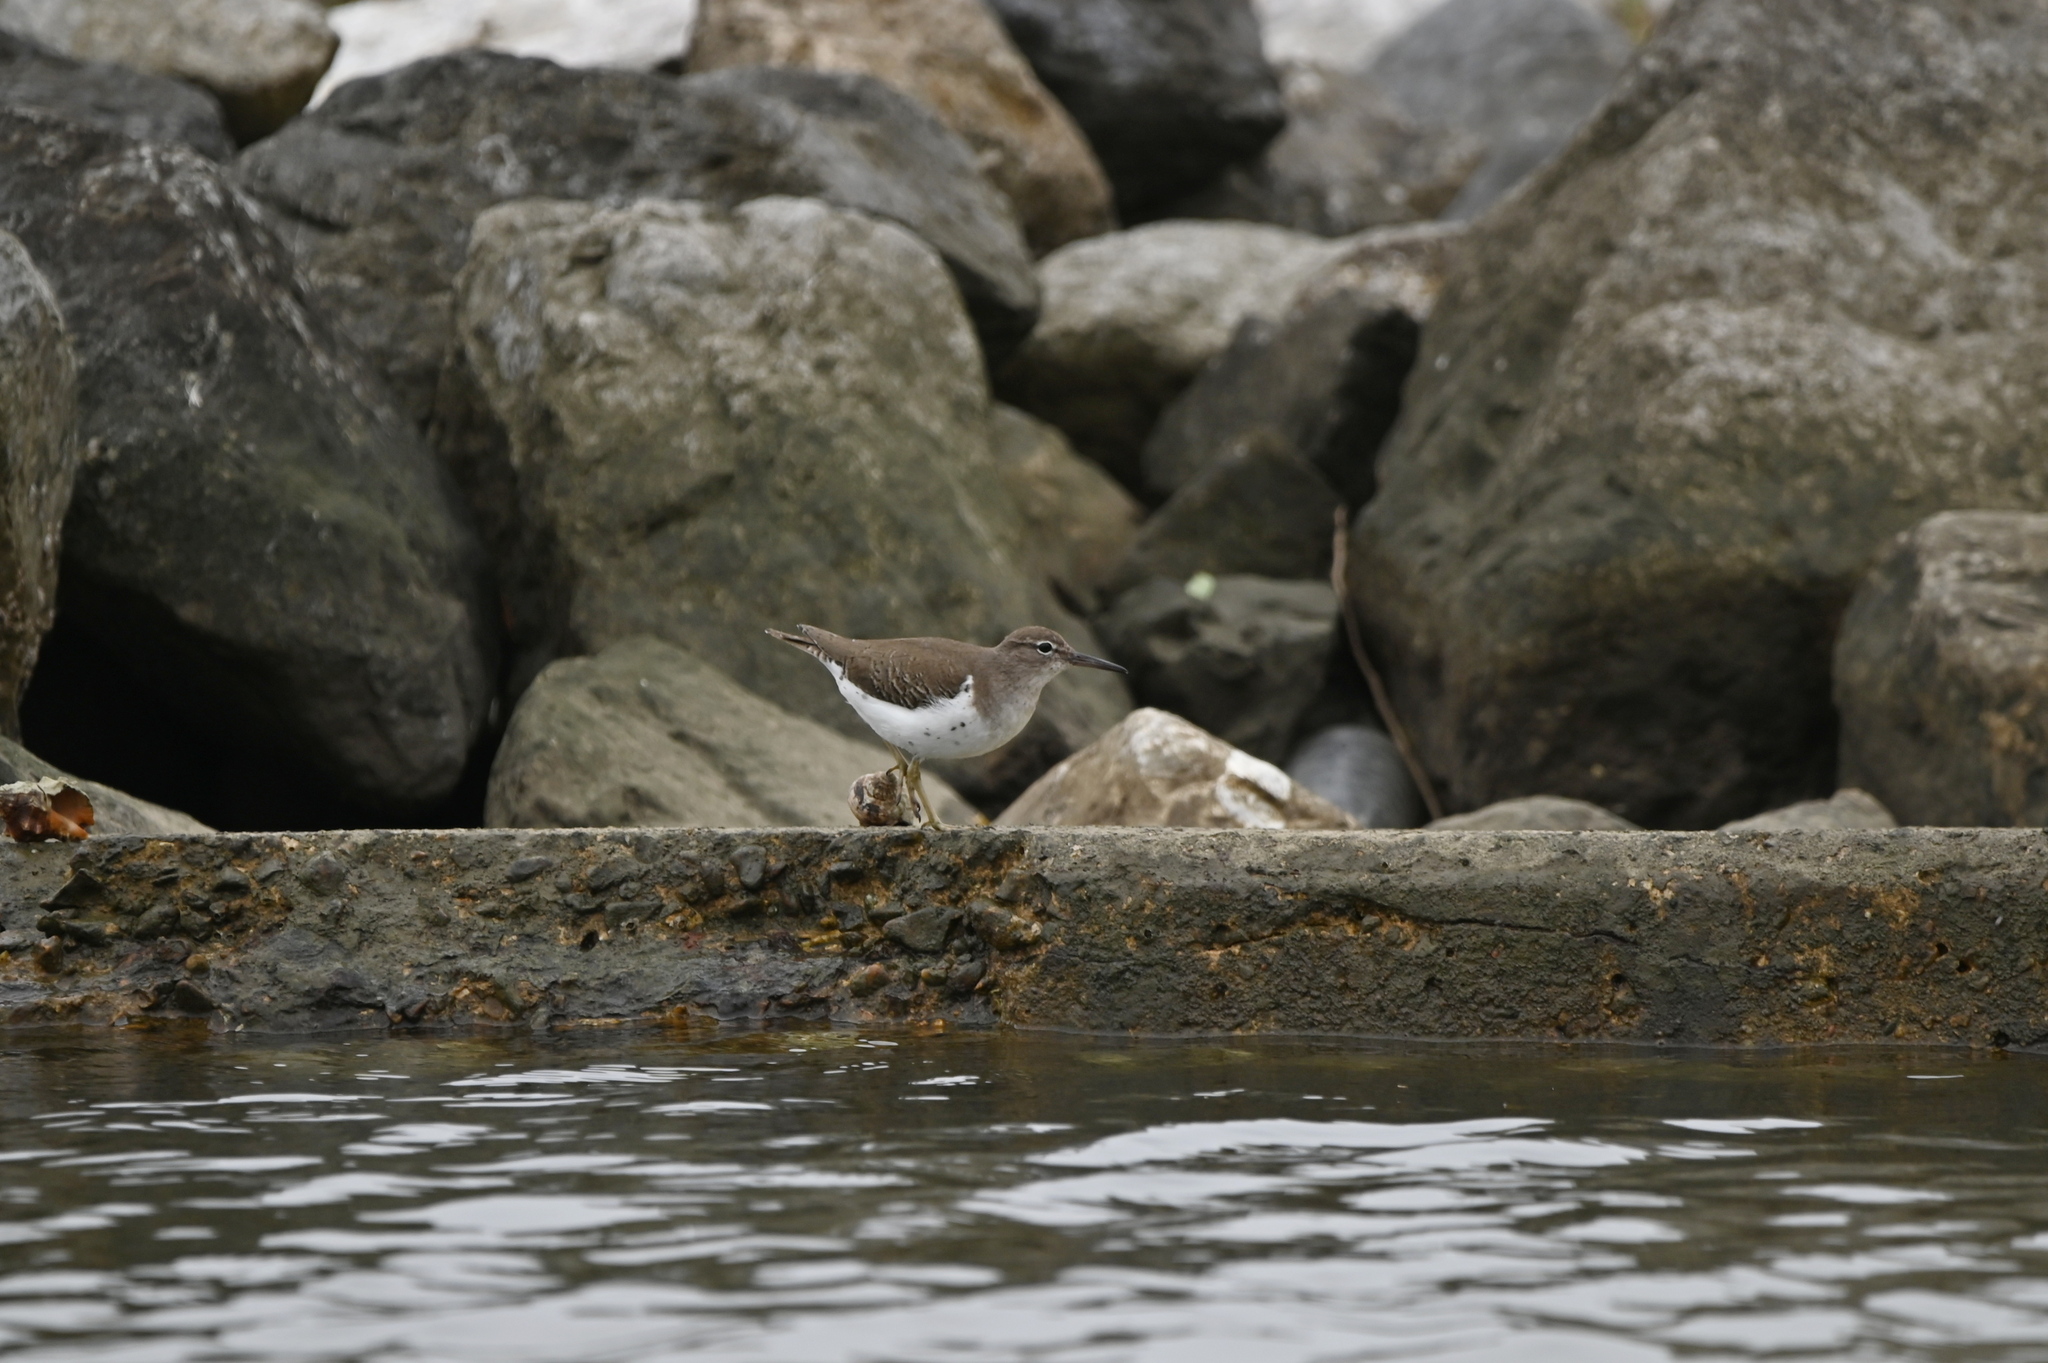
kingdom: Animalia
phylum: Chordata
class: Aves
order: Charadriiformes
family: Scolopacidae
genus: Actitis
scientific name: Actitis macularius
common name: Spotted sandpiper
